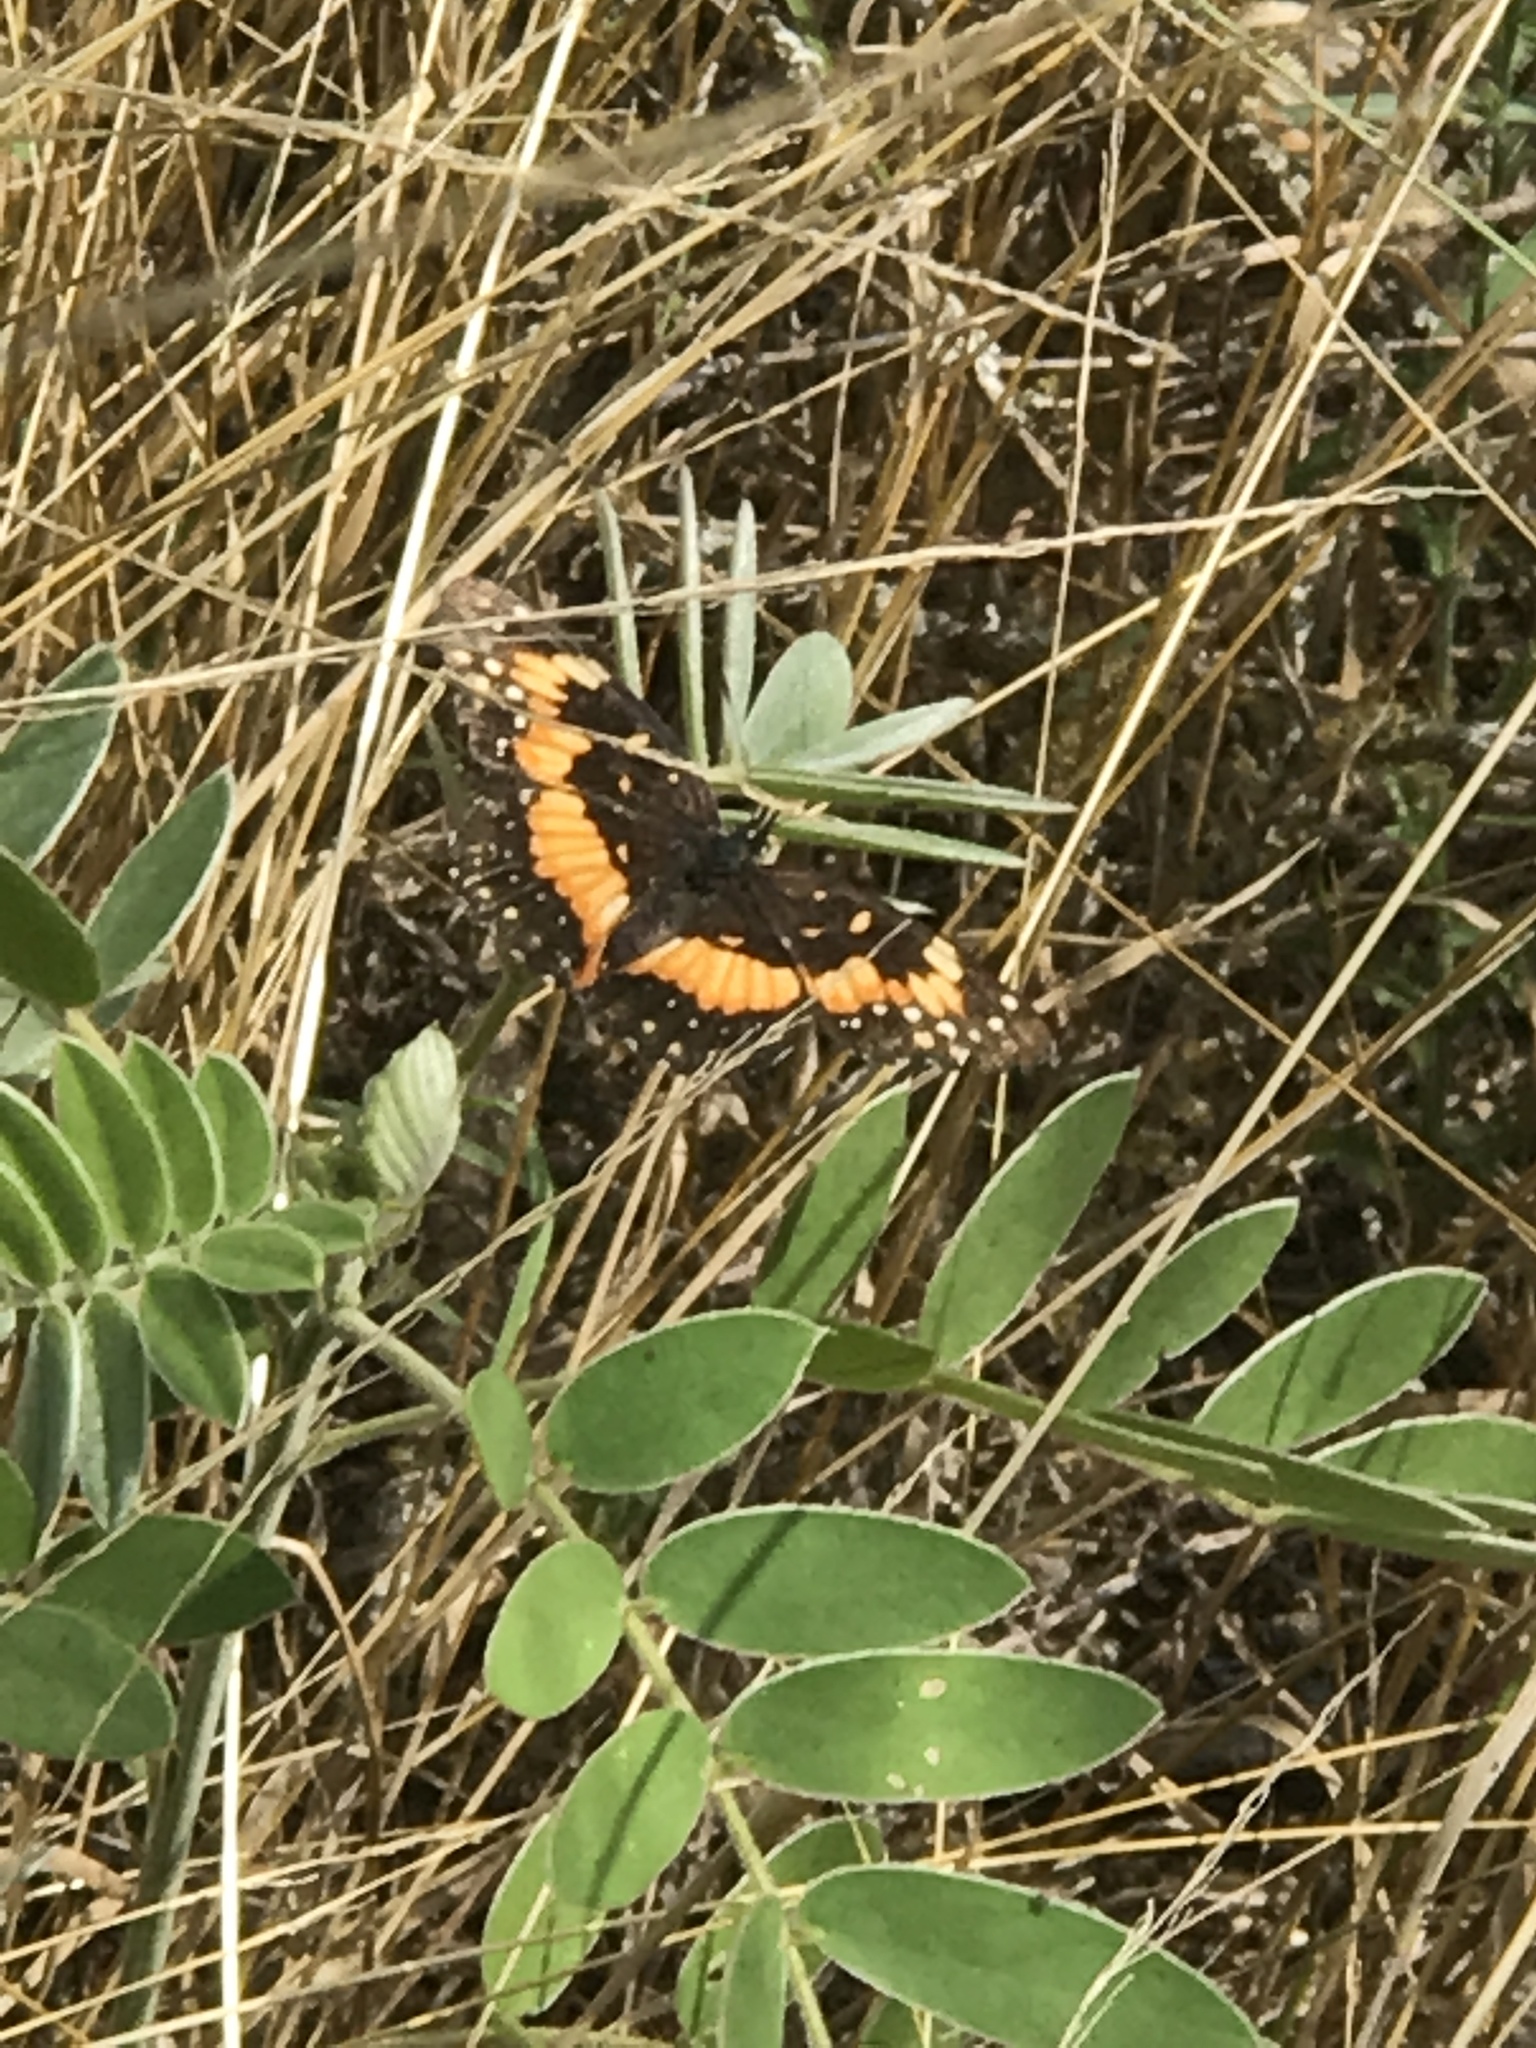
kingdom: Animalia
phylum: Arthropoda
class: Insecta
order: Lepidoptera
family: Nymphalidae
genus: Chlosyne
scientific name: Chlosyne lacinia
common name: Bordered patch
